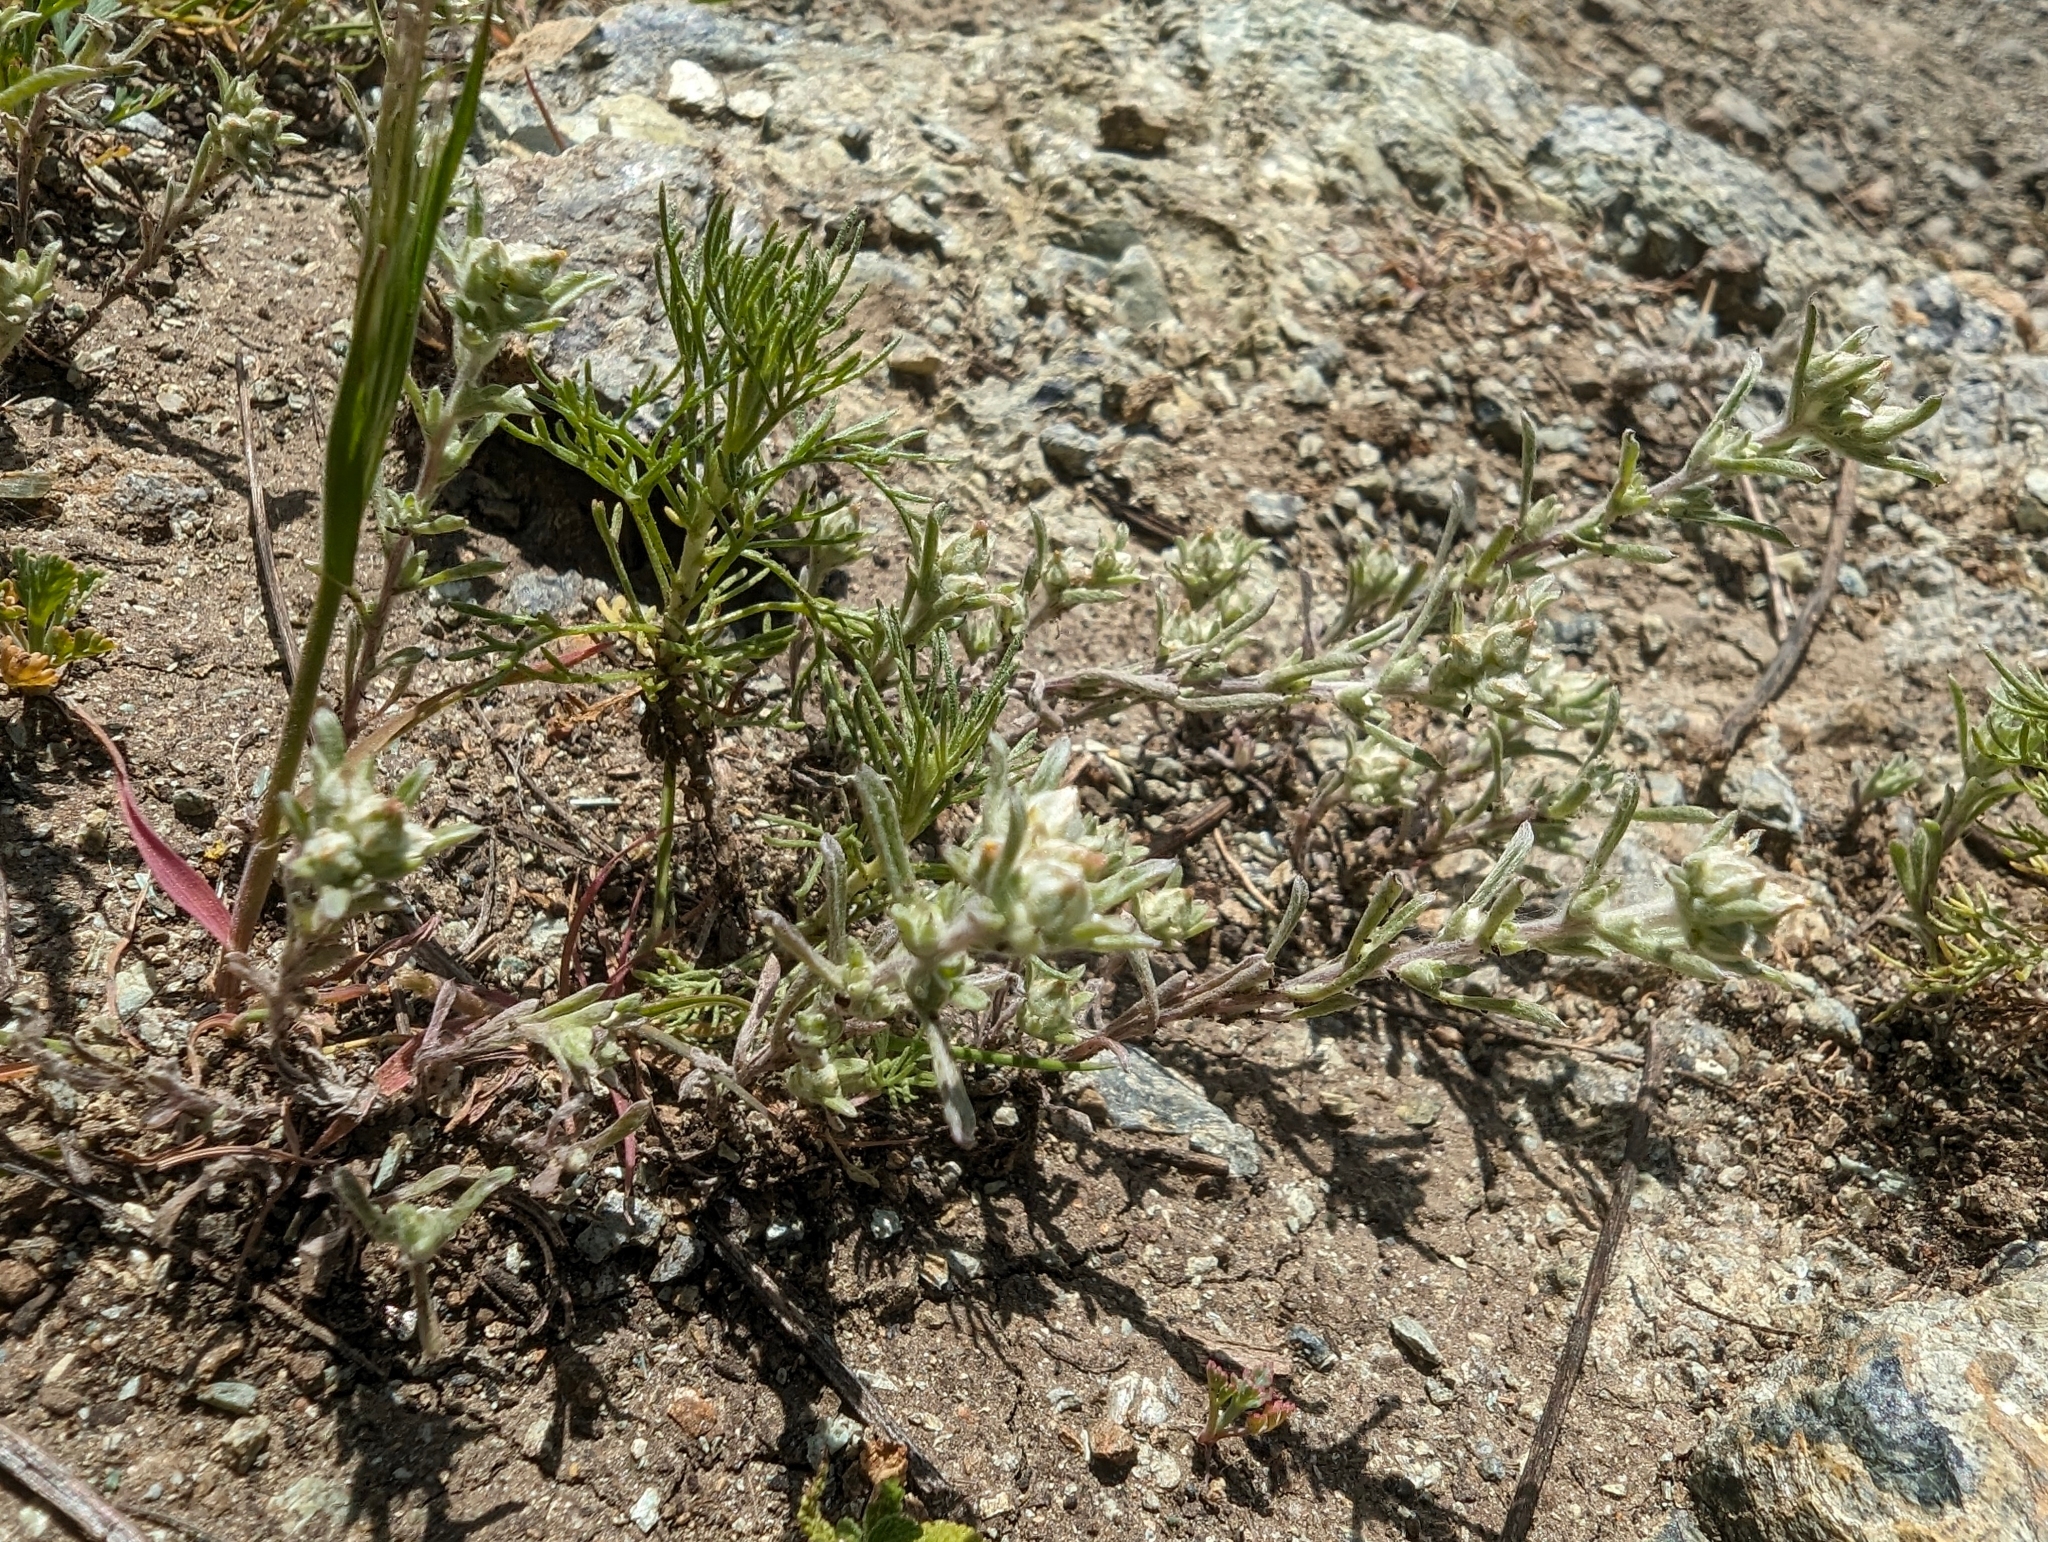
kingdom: Plantae
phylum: Tracheophyta
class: Magnoliopsida
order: Asterales
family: Asteraceae
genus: Logfia
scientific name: Logfia californica
